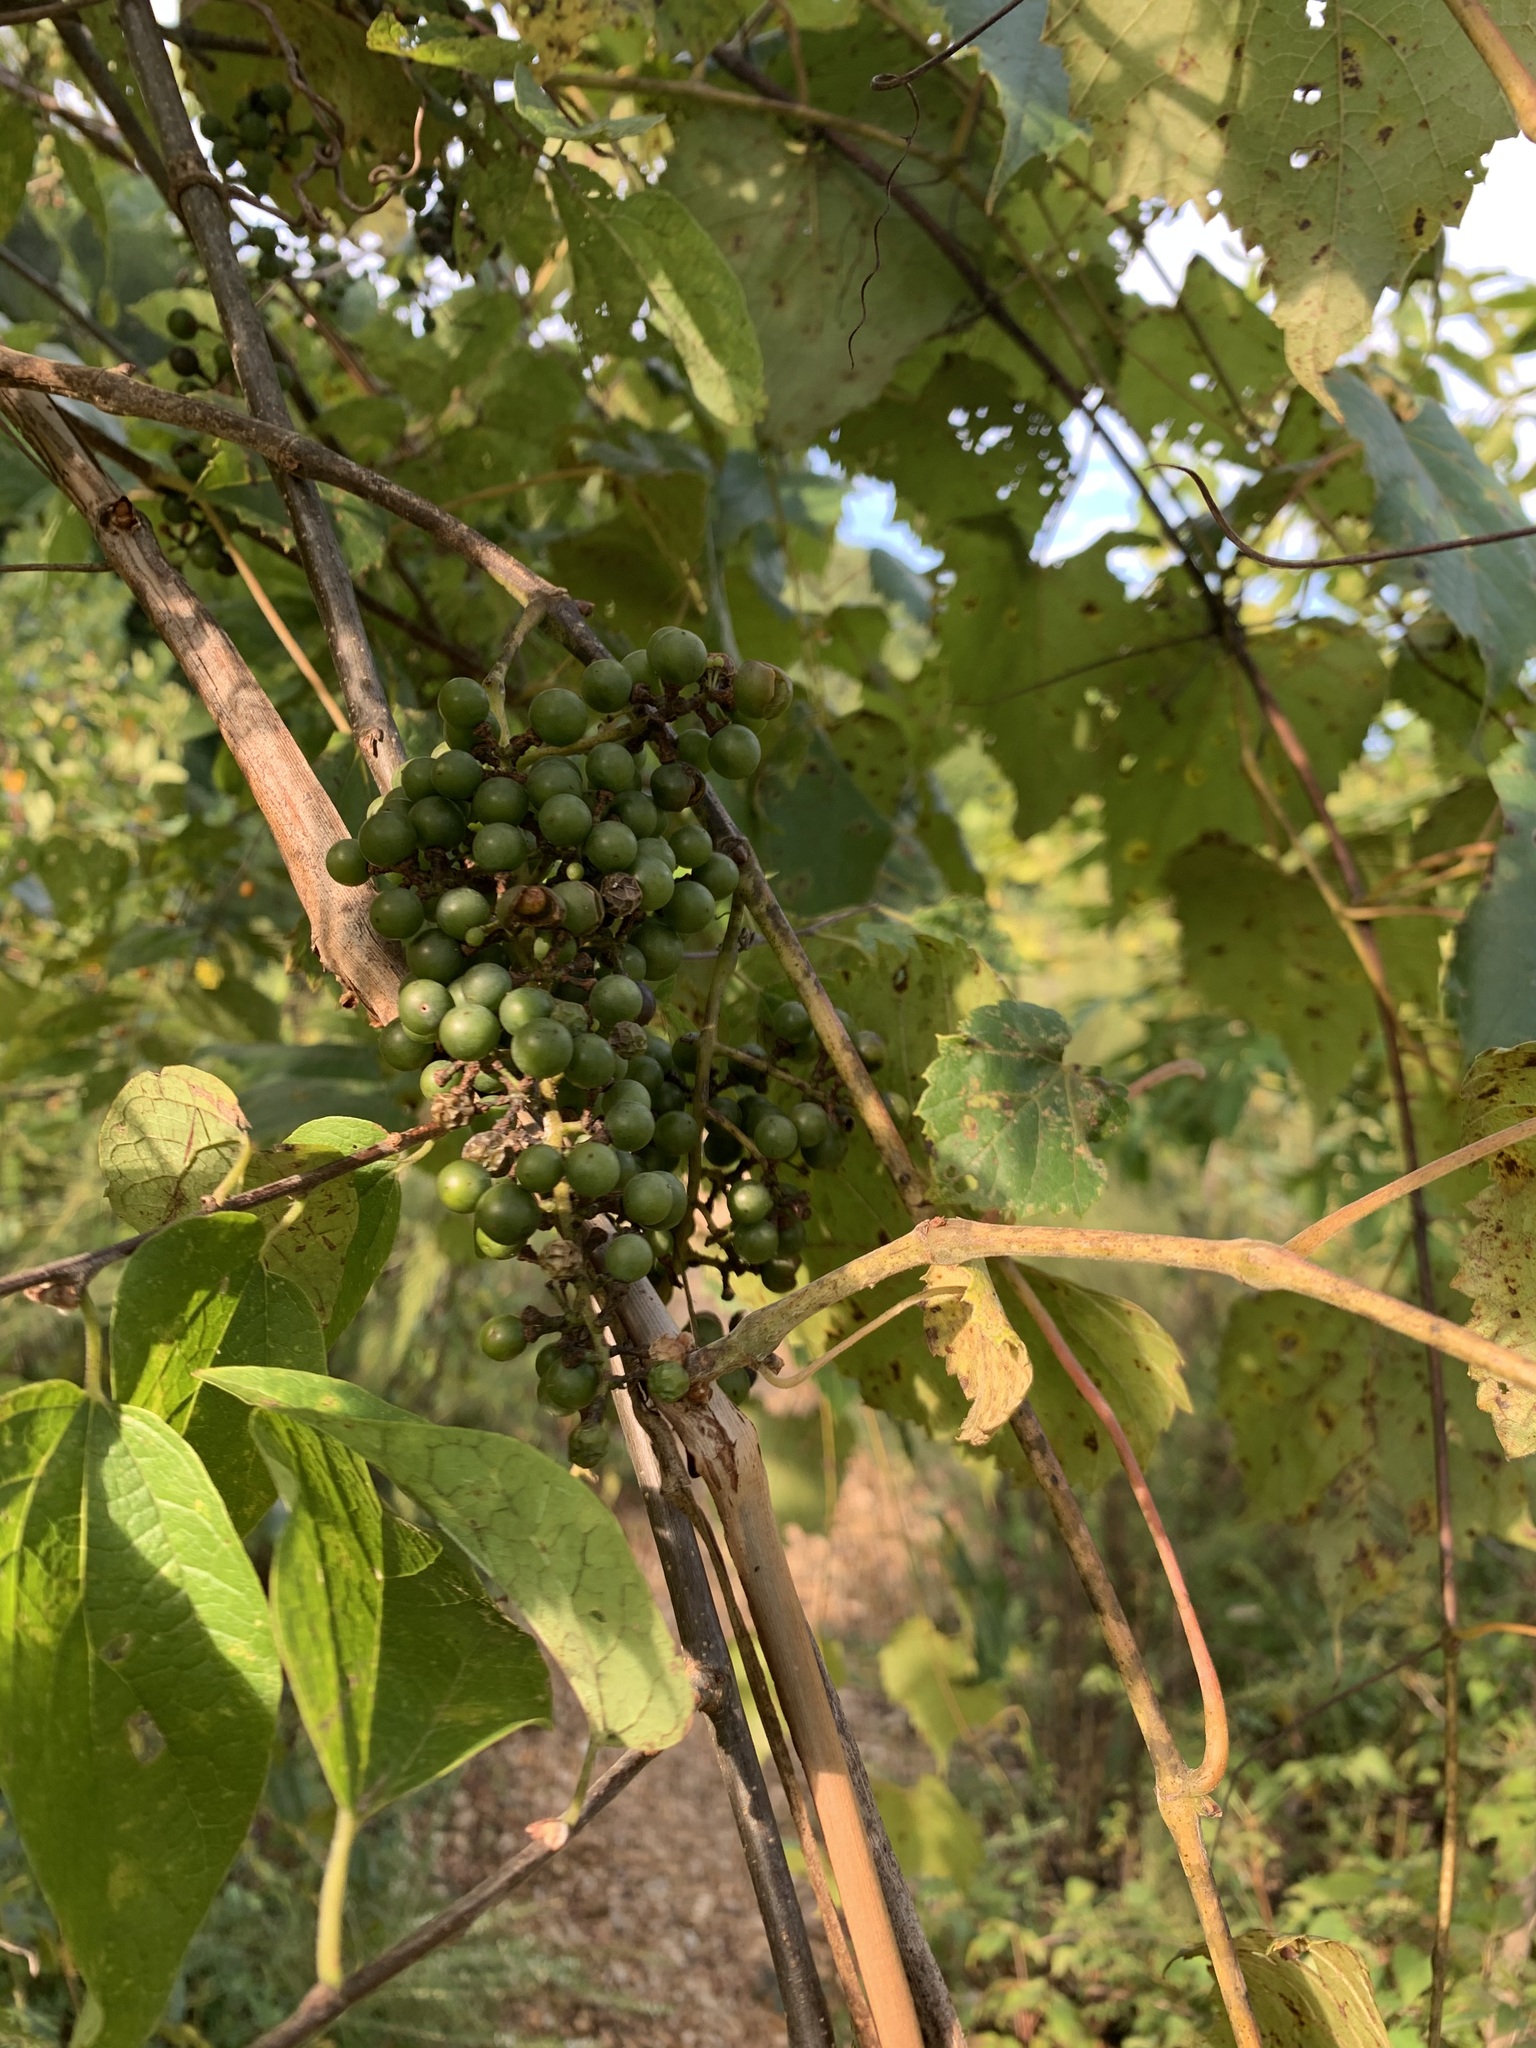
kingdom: Plantae
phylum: Tracheophyta
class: Magnoliopsida
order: Vitales
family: Vitaceae
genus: Vitis
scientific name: Vitis riparia
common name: Frost grape
